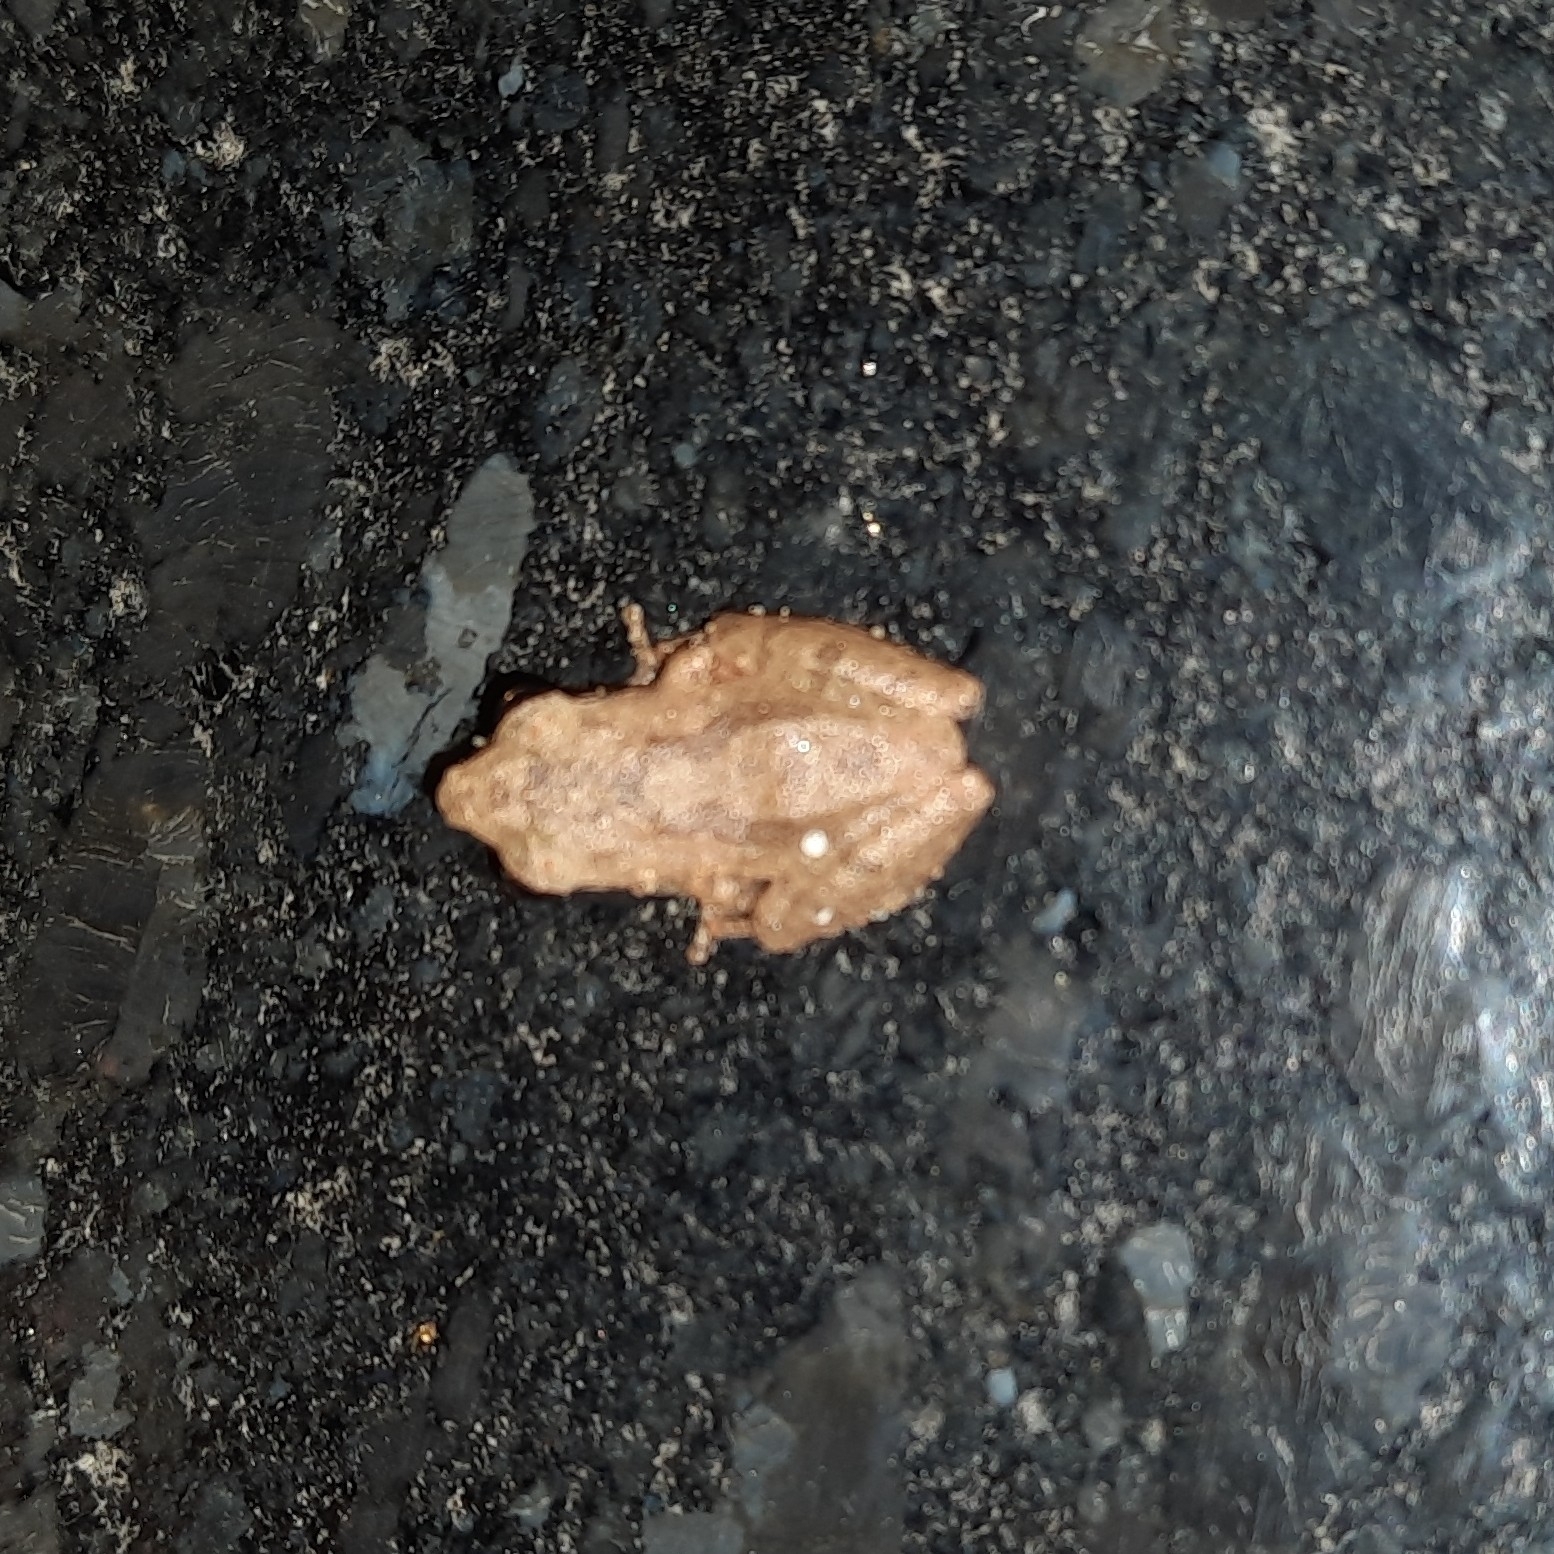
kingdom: Animalia
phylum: Chordata
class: Amphibia
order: Anura
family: Rhacophoridae
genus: Pseudophilautus
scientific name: Pseudophilautus wynaadensis
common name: Dark-eared bush frog
